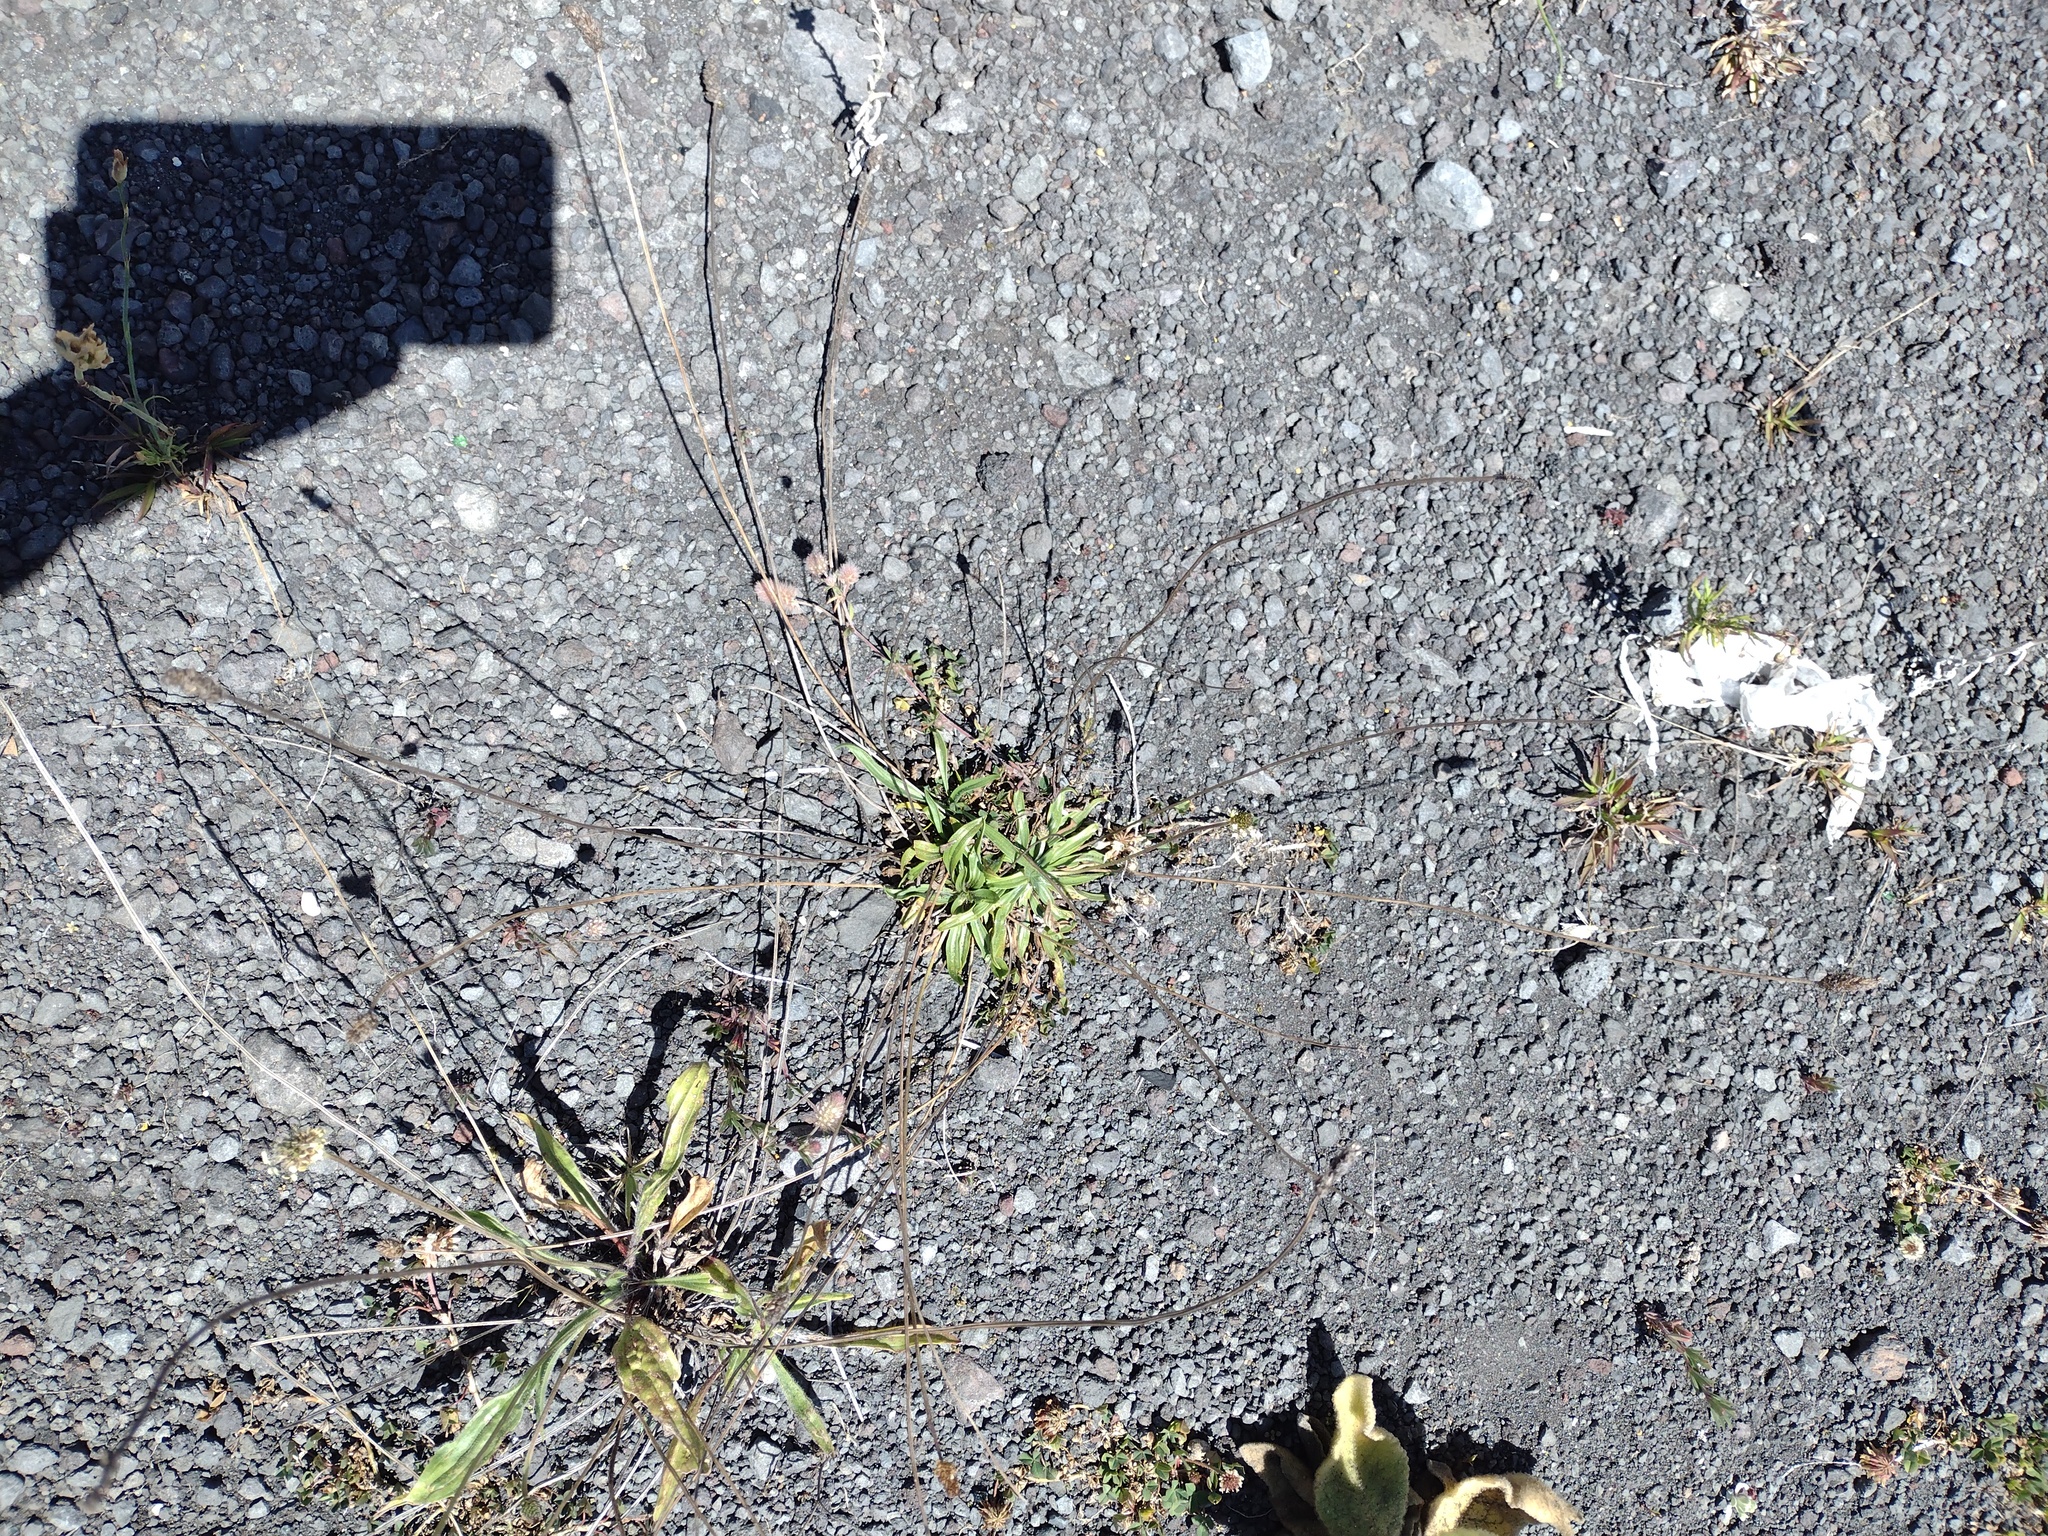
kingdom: Plantae
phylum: Tracheophyta
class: Magnoliopsida
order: Lamiales
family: Plantaginaceae
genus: Plantago
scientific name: Plantago lanceolata
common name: Ribwort plantain
